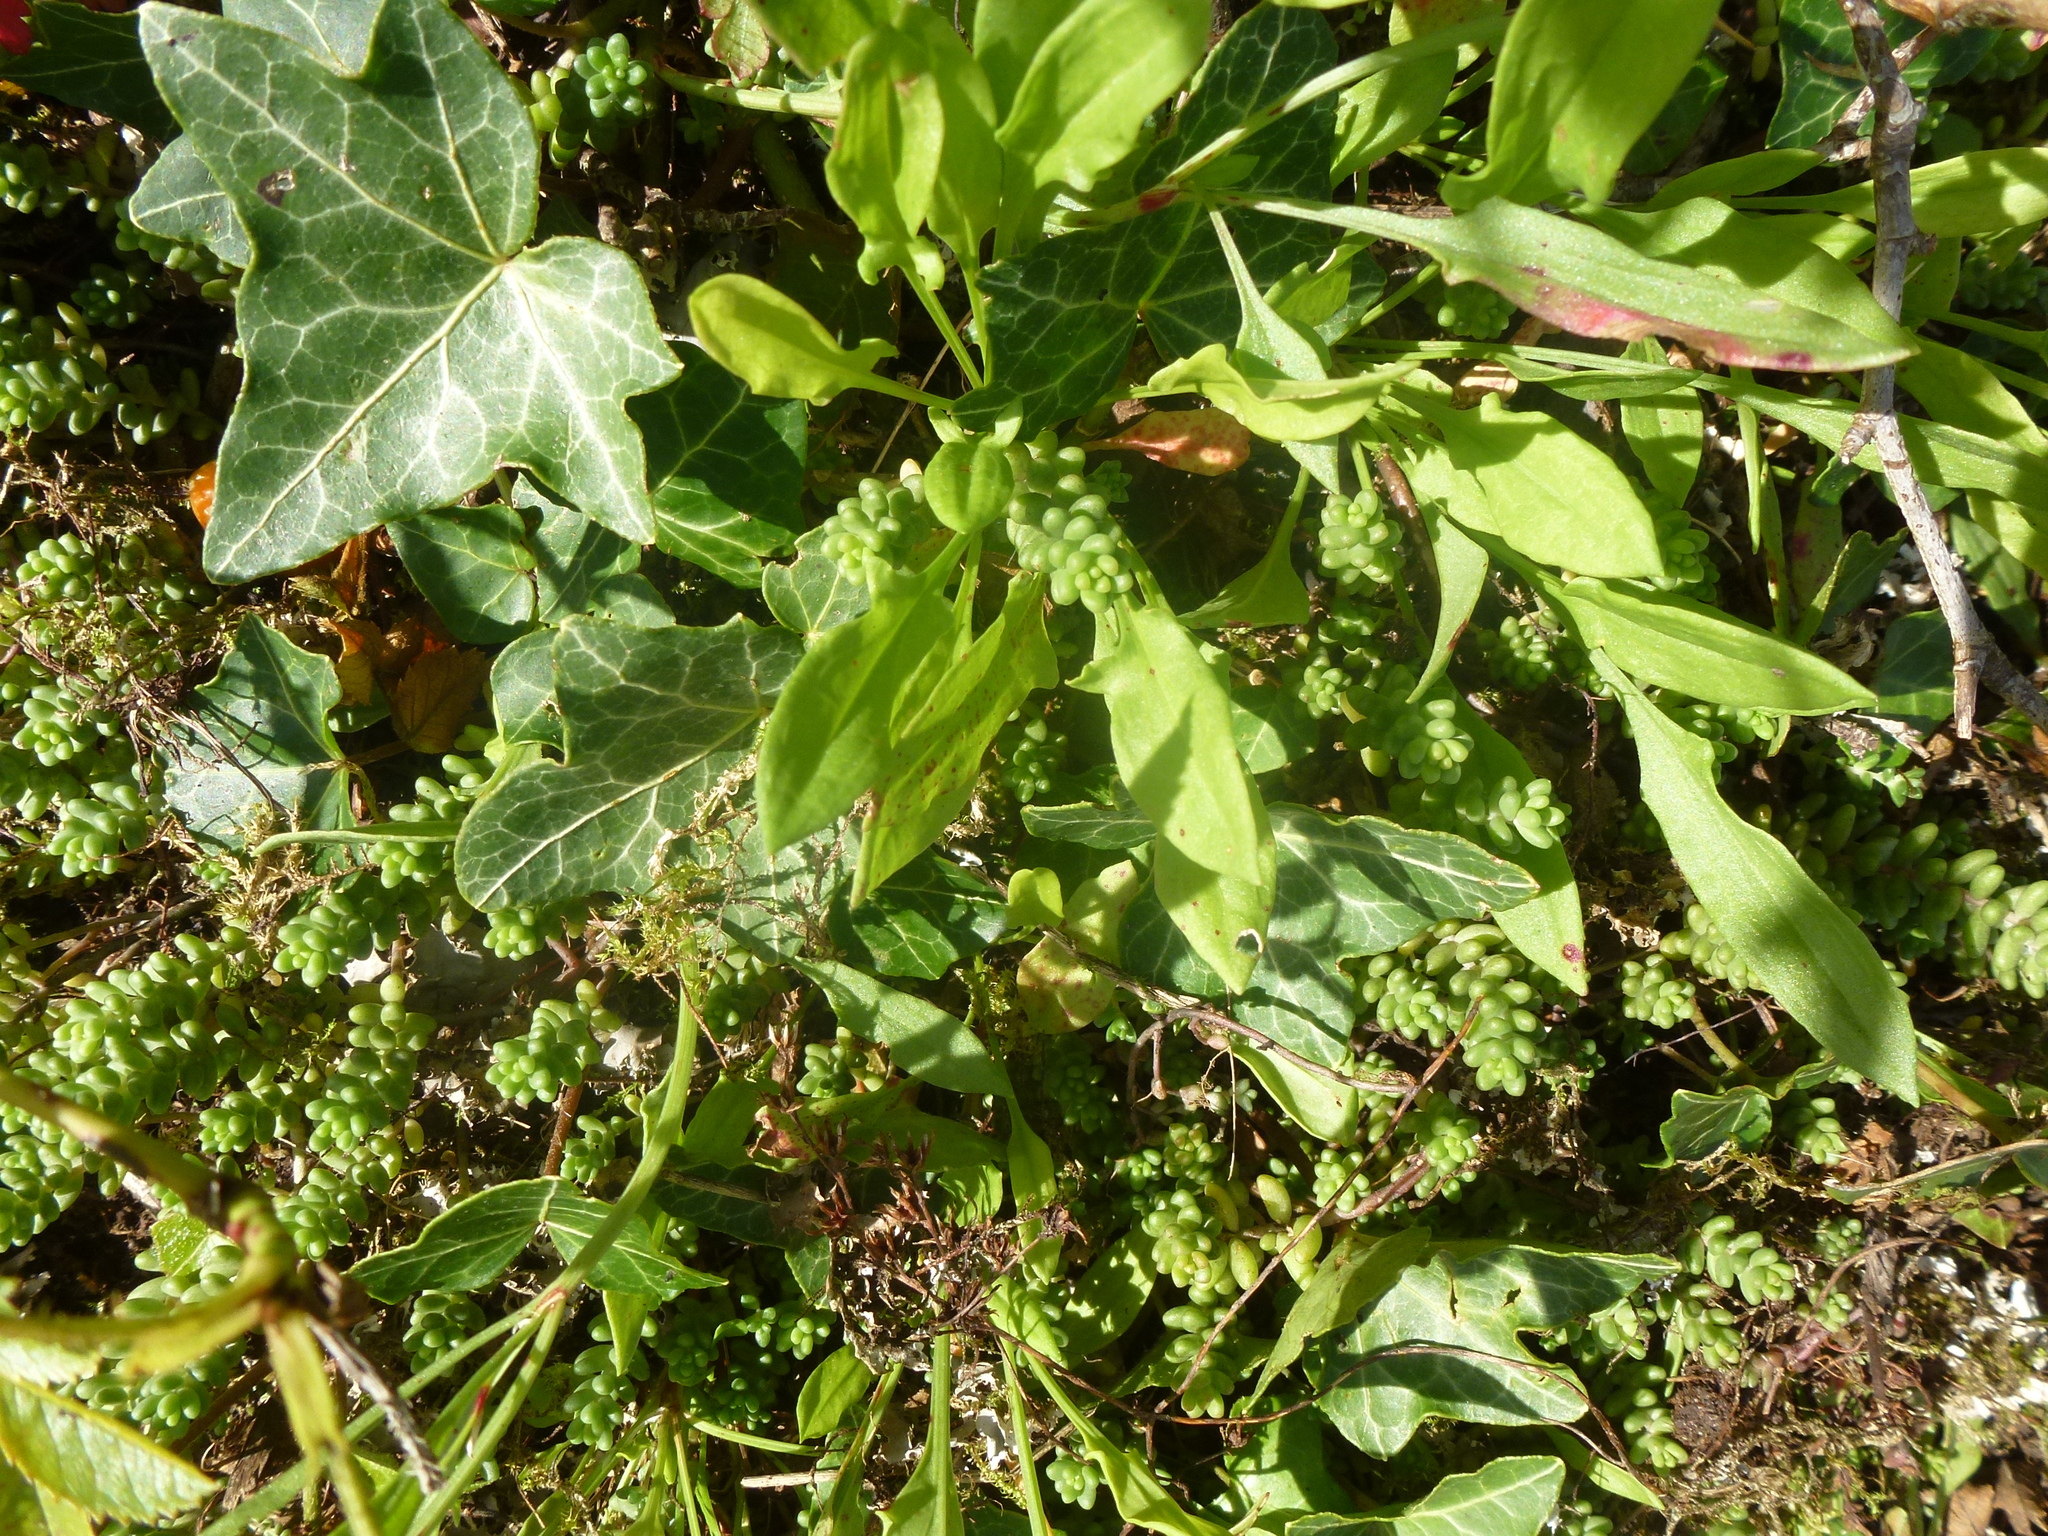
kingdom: Plantae
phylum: Tracheophyta
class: Magnoliopsida
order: Caryophyllales
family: Polygonaceae
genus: Rumex
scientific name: Rumex acetosella
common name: Common sheep sorrel
